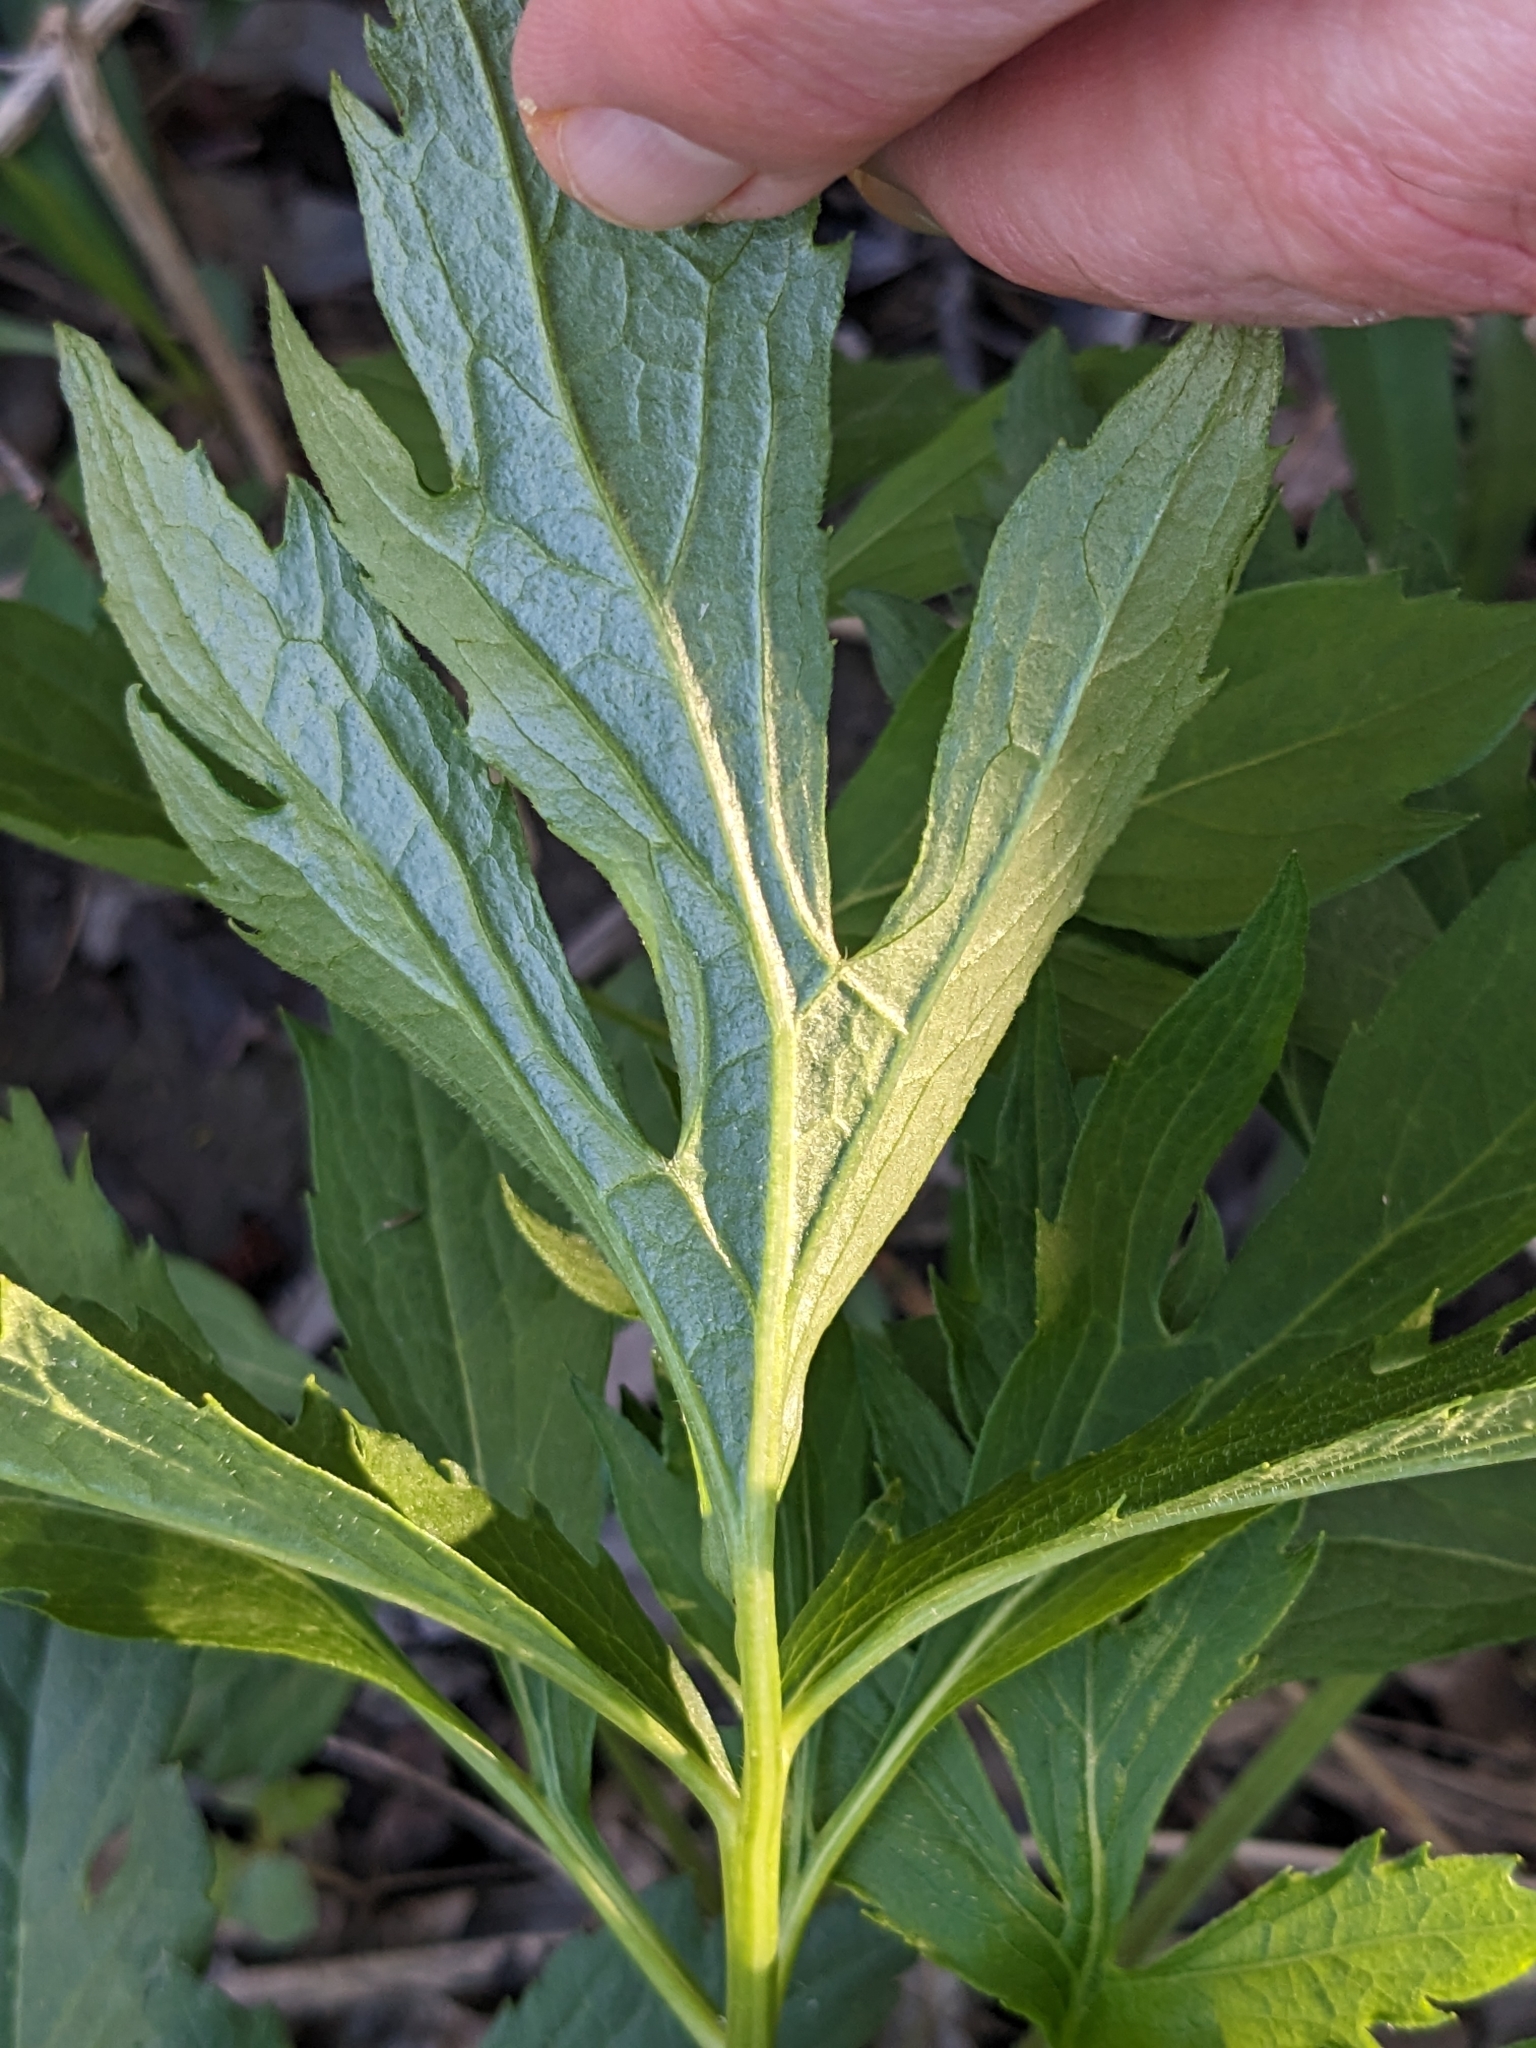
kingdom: Plantae
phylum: Tracheophyta
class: Magnoliopsida
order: Asterales
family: Asteraceae
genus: Rudbeckia
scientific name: Rudbeckia laciniata
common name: Coneflower
